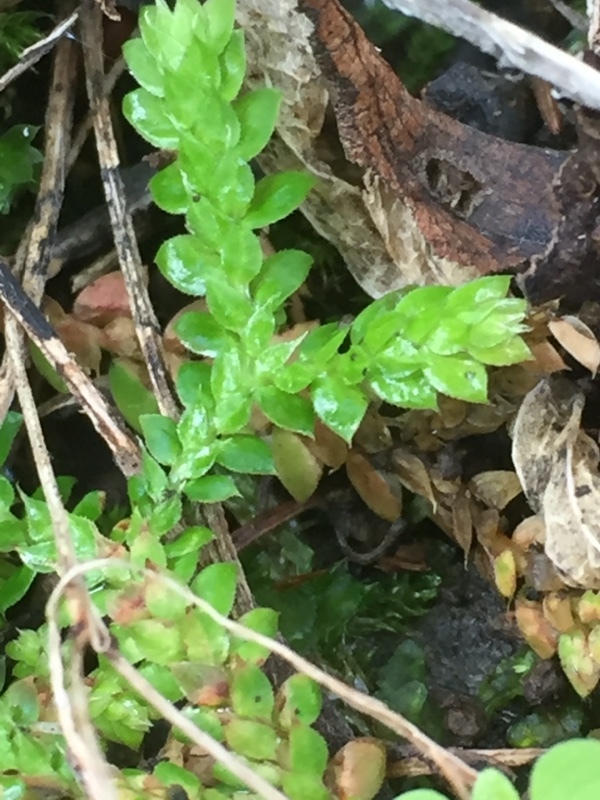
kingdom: Plantae
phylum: Tracheophyta
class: Lycopodiopsida
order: Selaginellales
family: Selaginellaceae
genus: Selaginella
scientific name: Selaginella denticulata
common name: Toothed-leaved clubmoss
